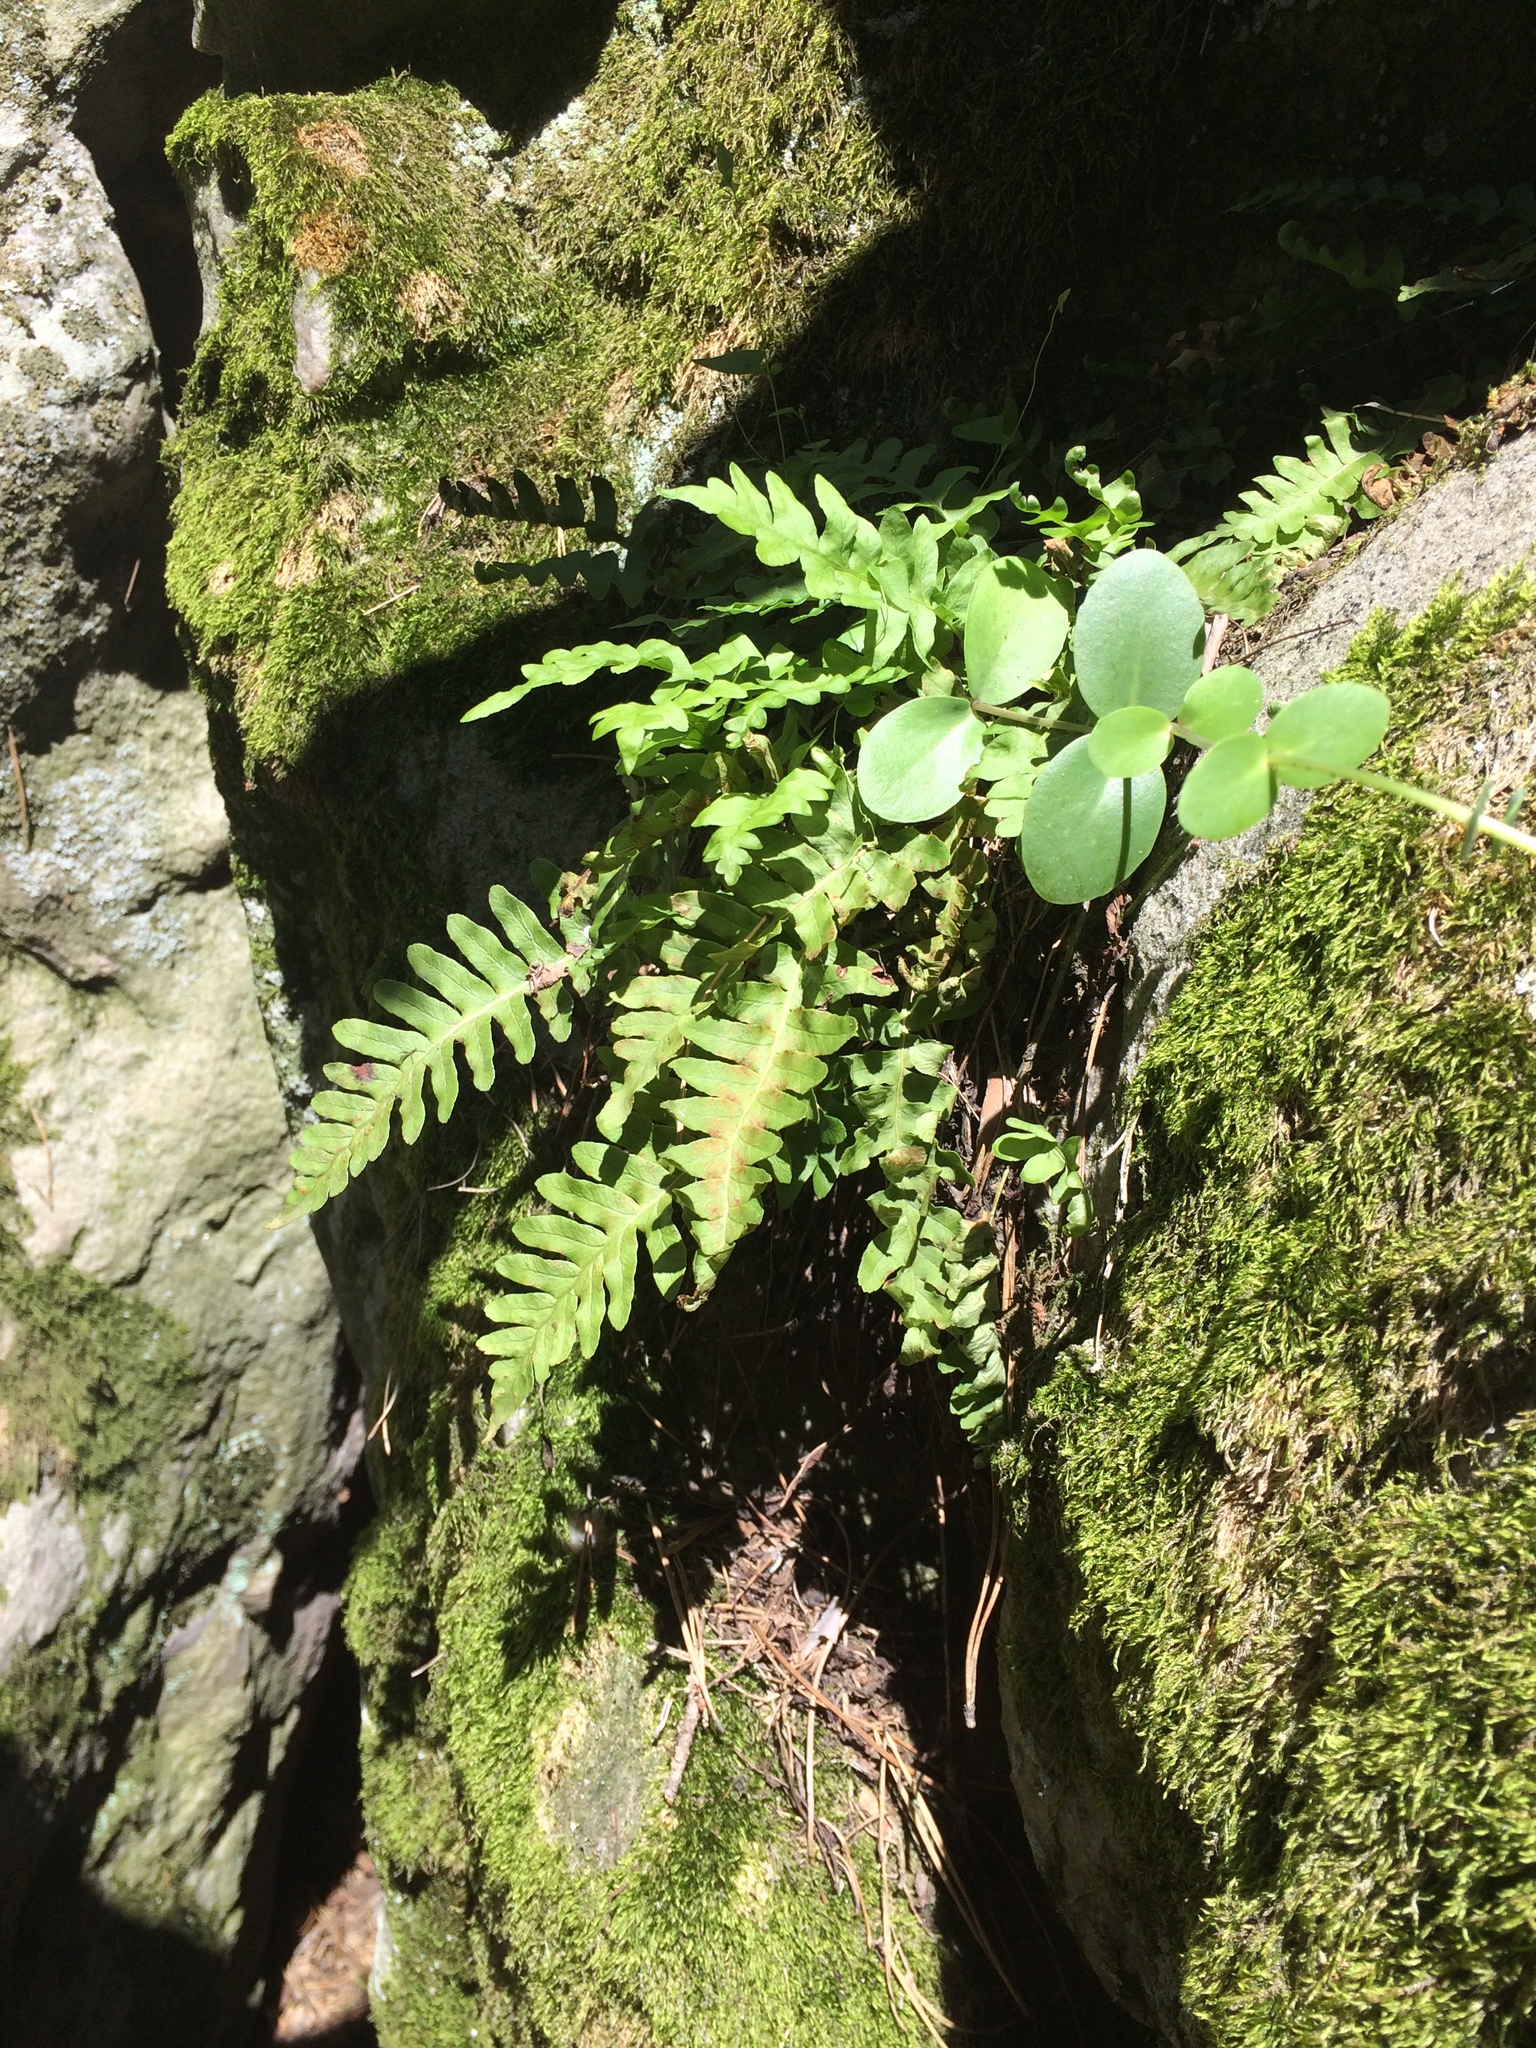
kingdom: Plantae
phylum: Tracheophyta
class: Polypodiopsida
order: Polypodiales
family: Polypodiaceae
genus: Polypodium
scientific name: Polypodium vulgare
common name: Common polypody
